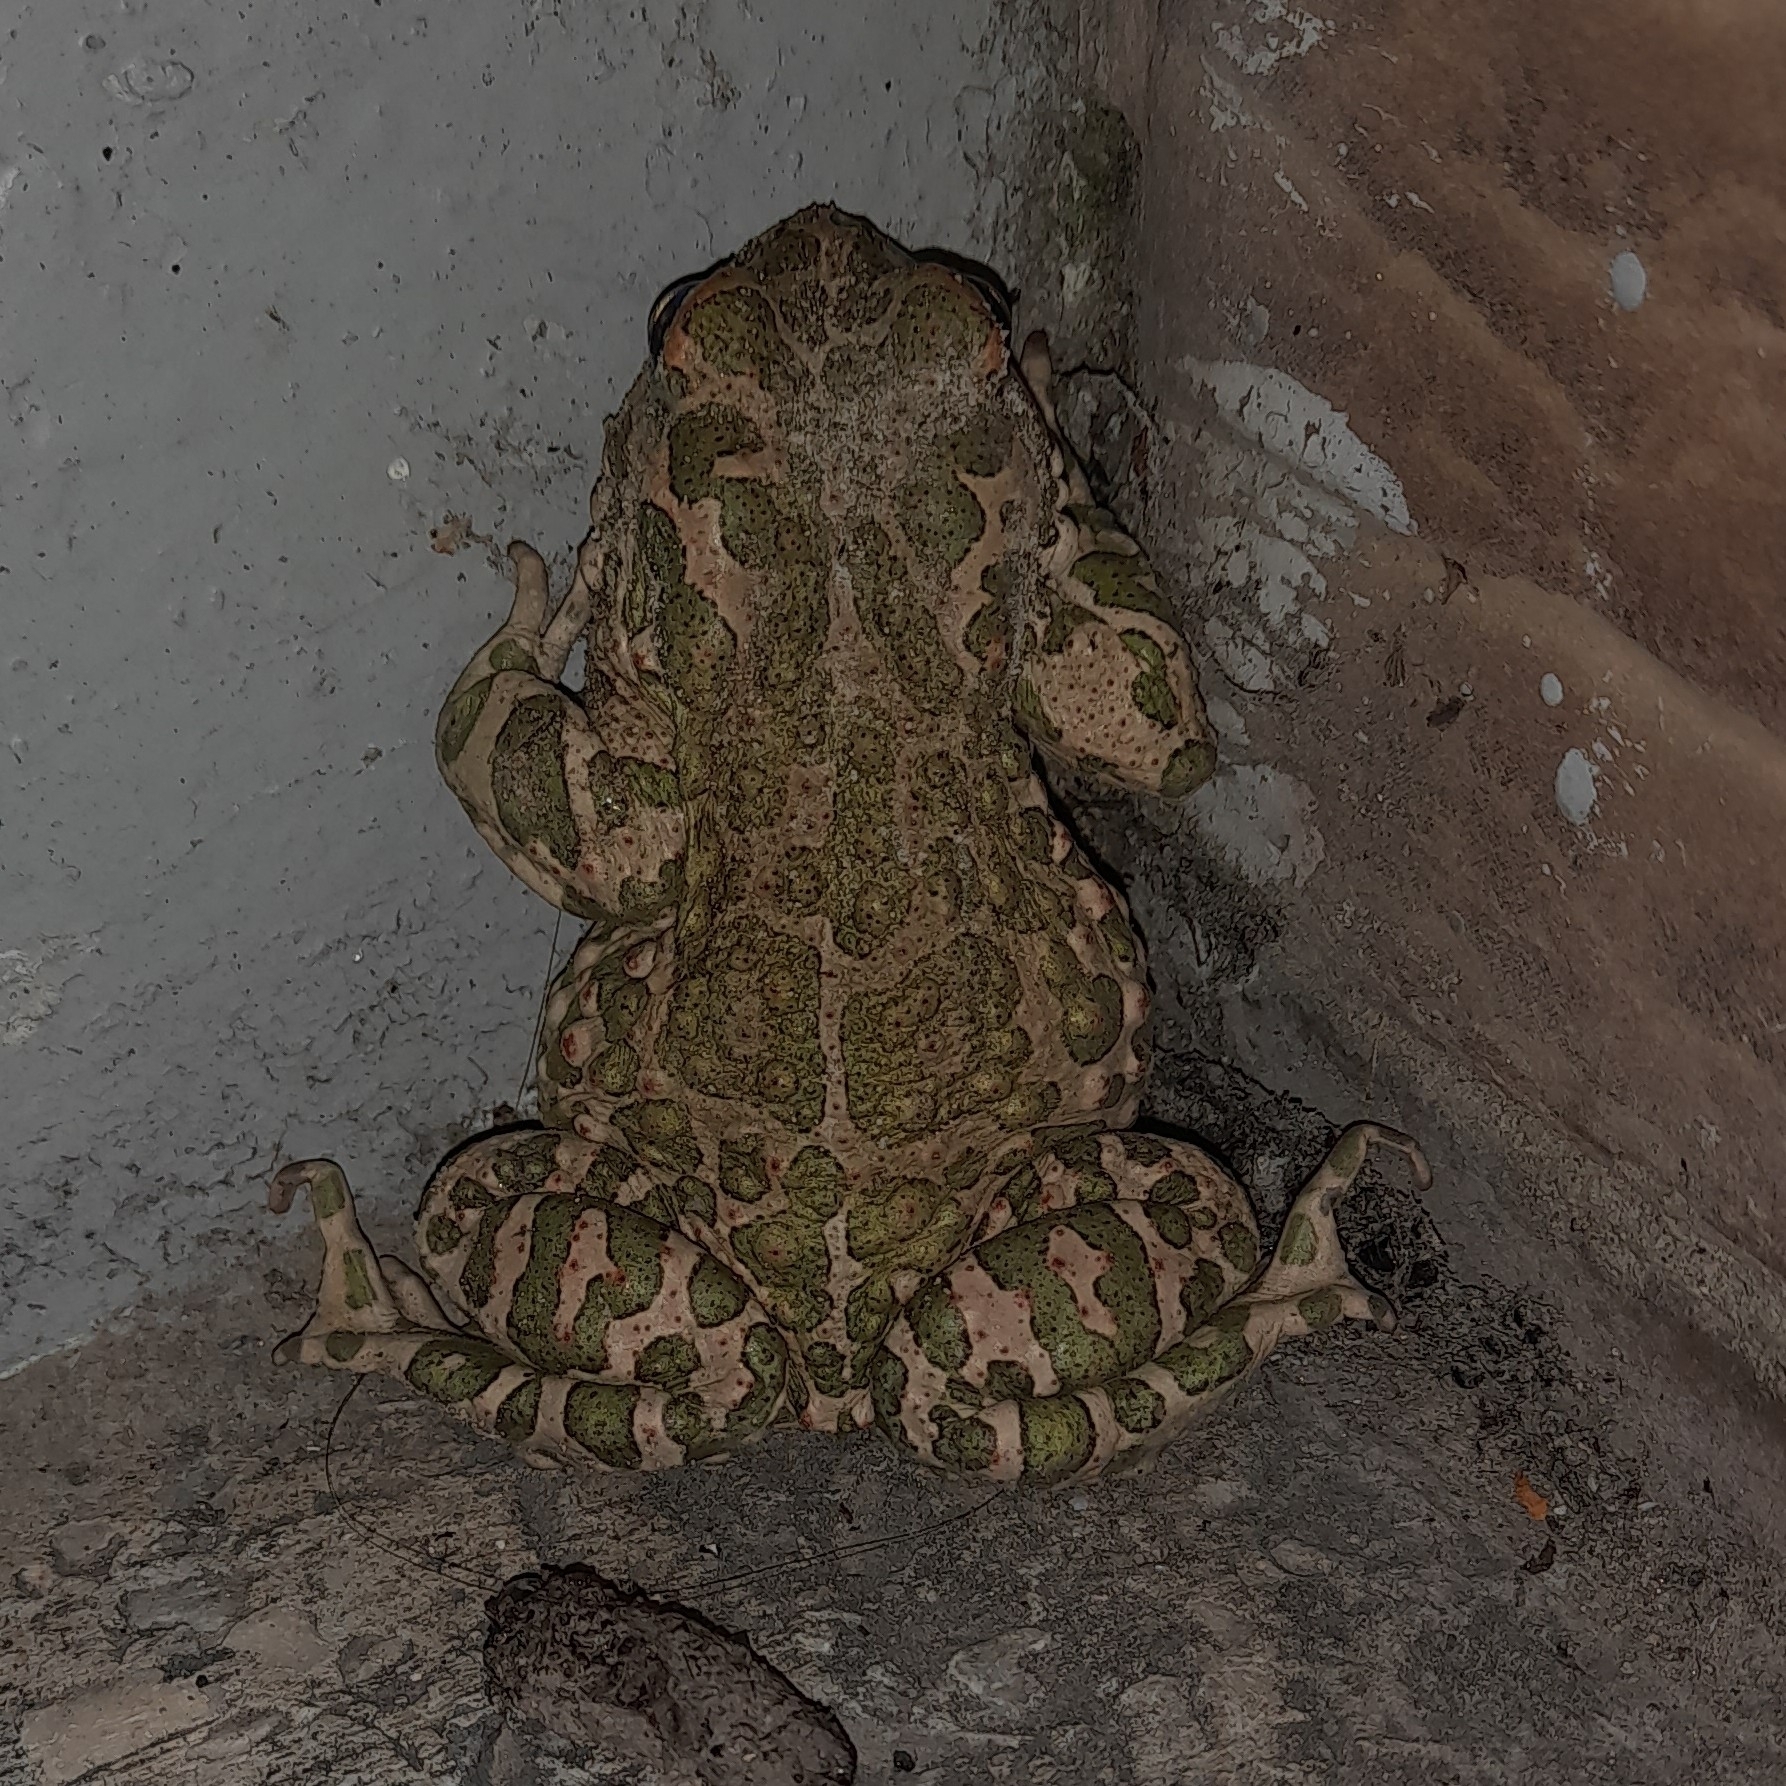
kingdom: Animalia
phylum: Chordata
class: Amphibia
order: Anura
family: Bufonidae
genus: Bufotes
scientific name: Bufotes viridis
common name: European green toad
